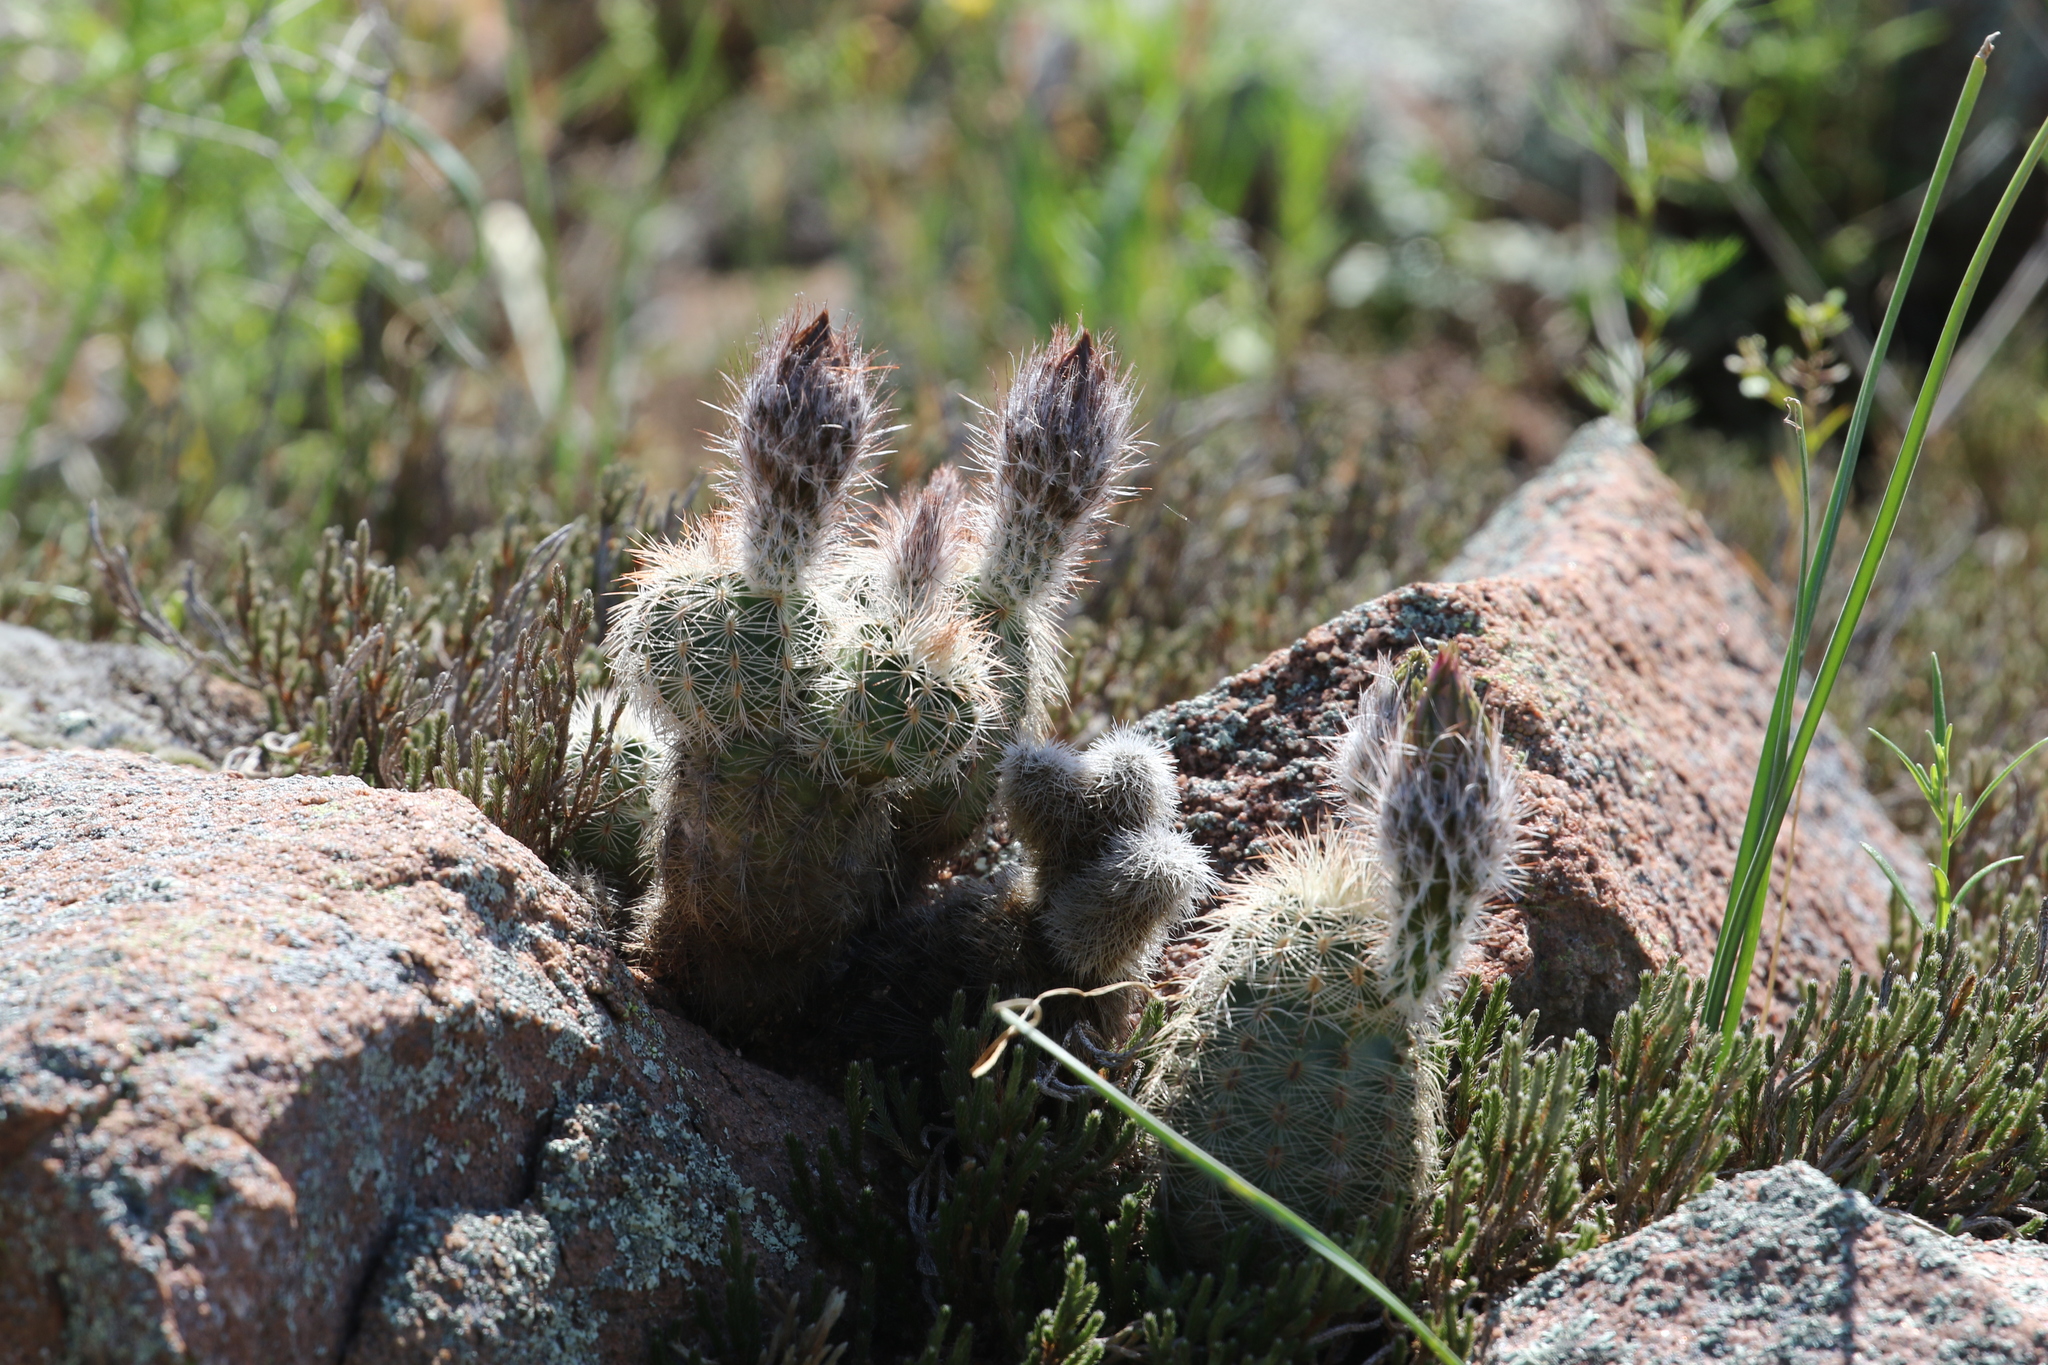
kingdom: Plantae
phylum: Tracheophyta
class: Magnoliopsida
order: Caryophyllales
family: Cactaceae
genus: Echinocereus
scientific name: Echinocereus reichenbachii
